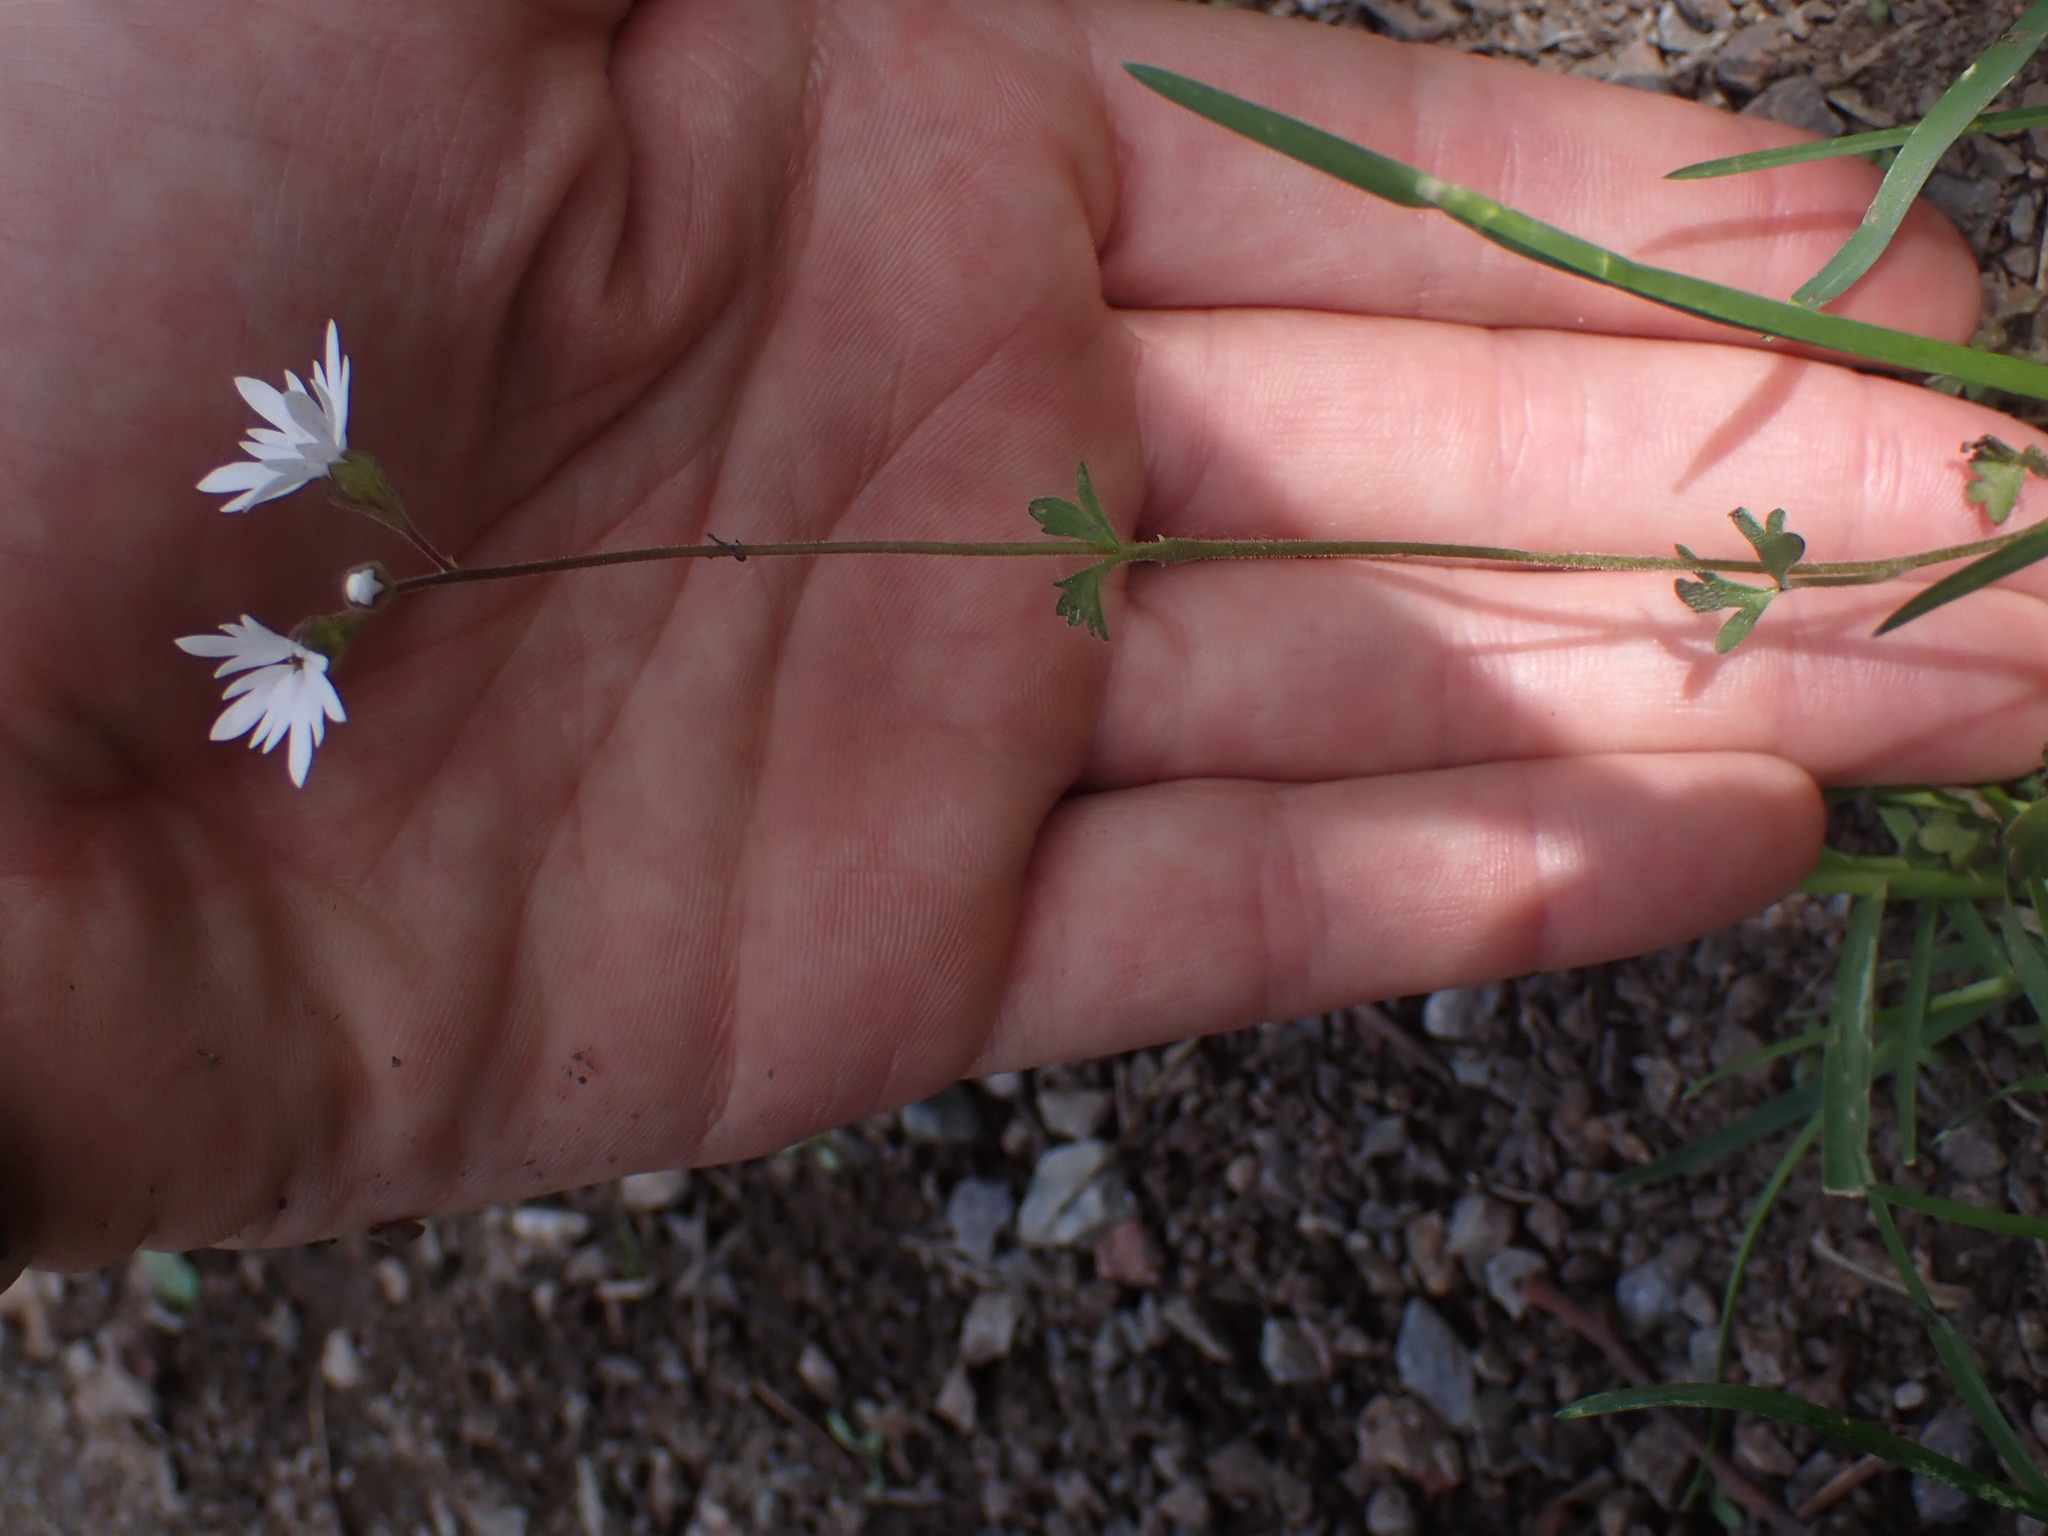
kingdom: Plantae
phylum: Tracheophyta
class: Magnoliopsida
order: Saxifragales
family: Saxifragaceae
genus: Lithophragma
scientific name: Lithophragma parviflorum
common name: Small-flowered fringe-cup
